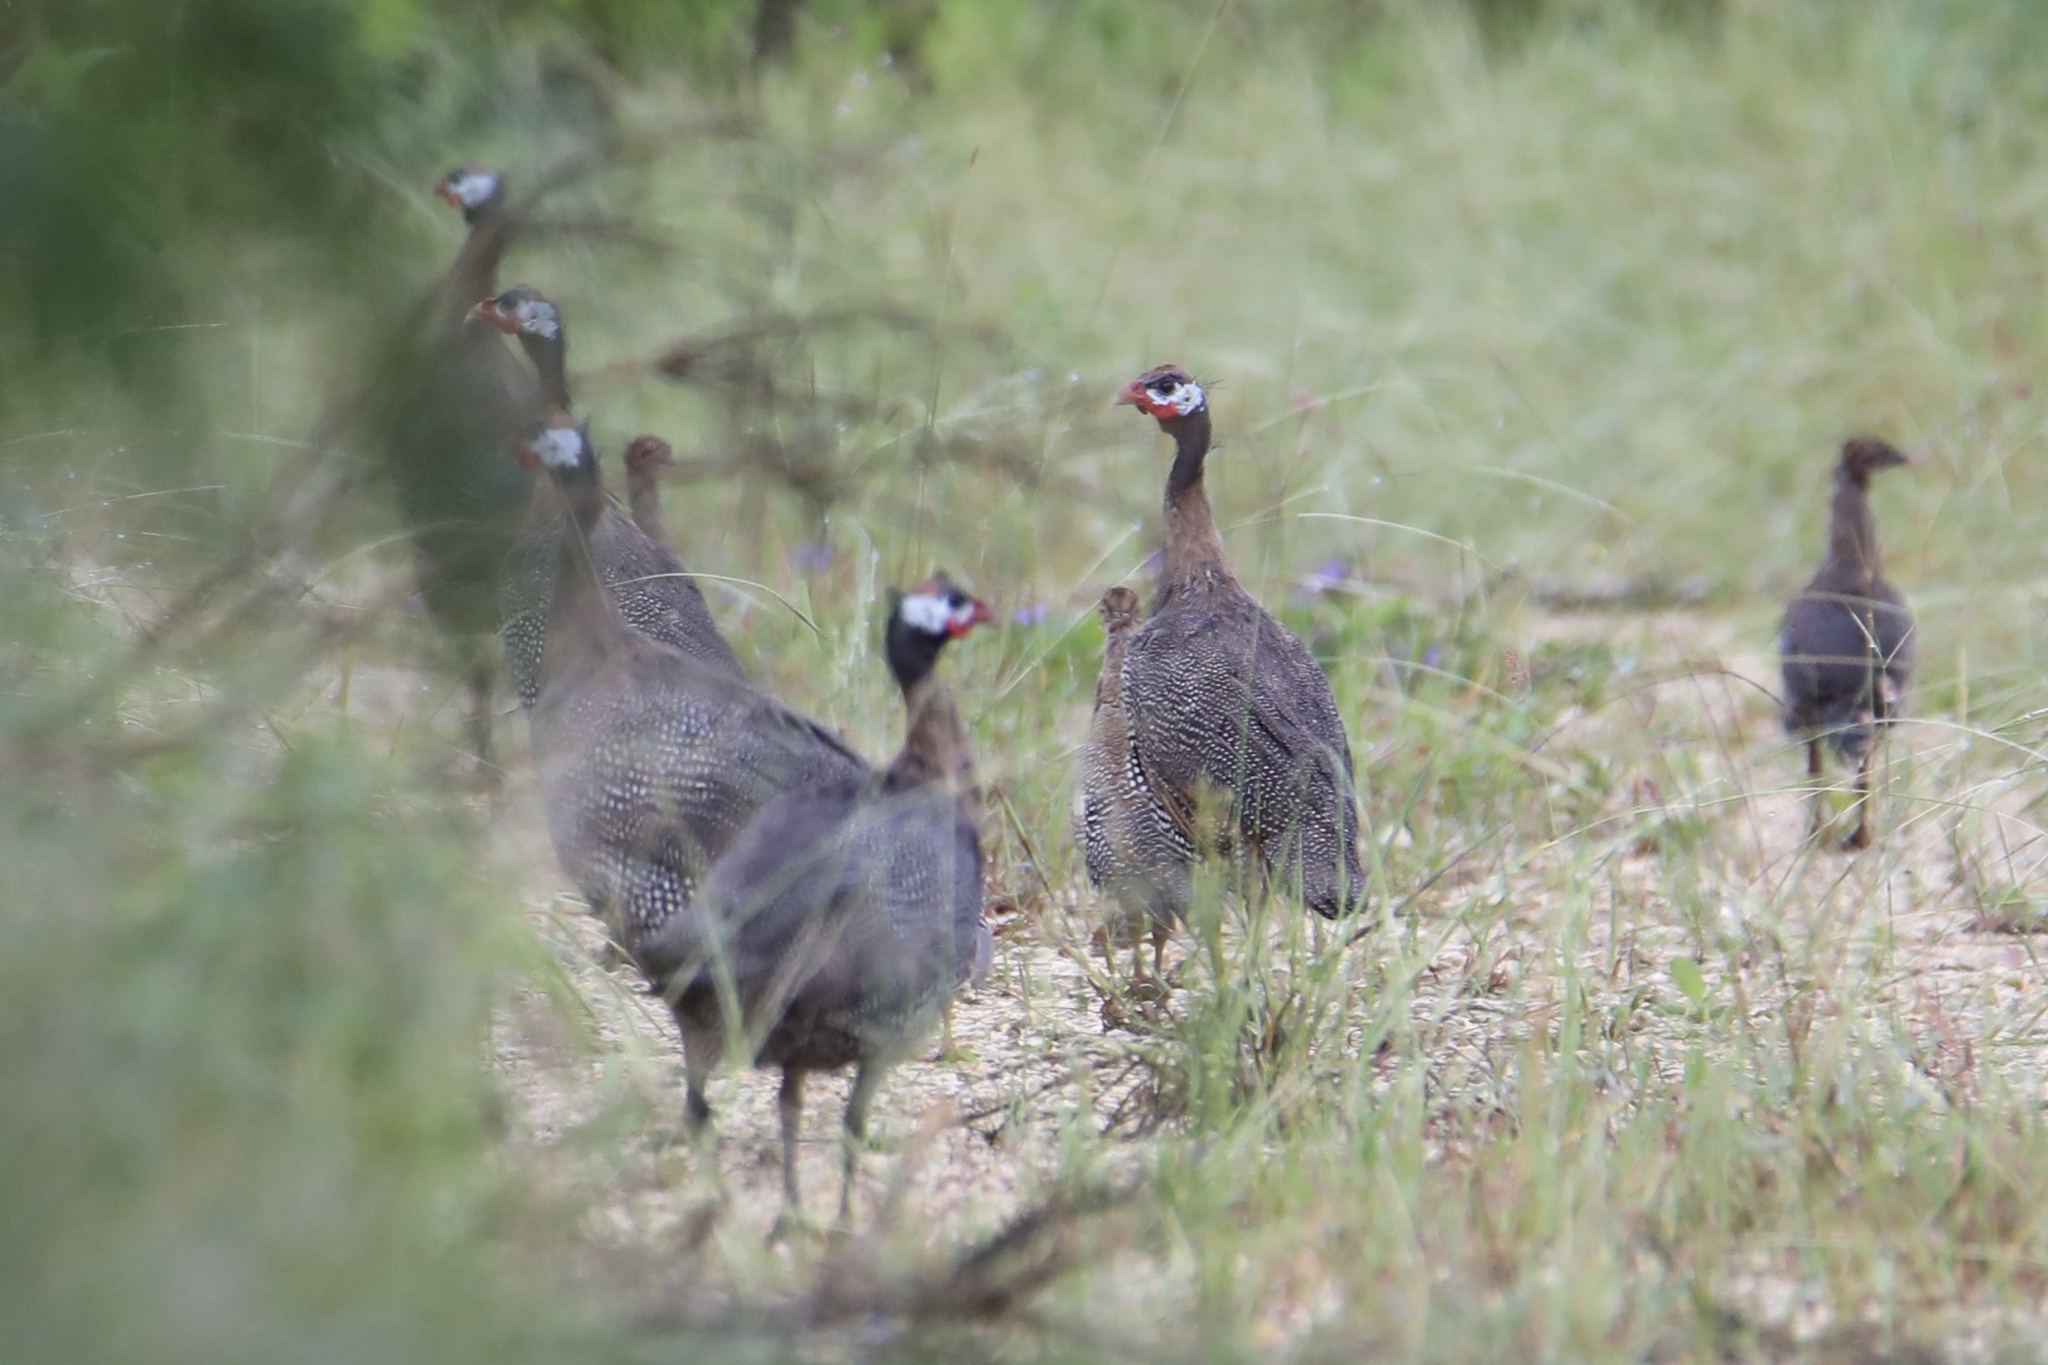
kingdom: Animalia
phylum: Chordata
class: Aves
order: Galliformes
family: Numididae
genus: Numida
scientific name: Numida meleagris
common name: Helmeted guineafowl
